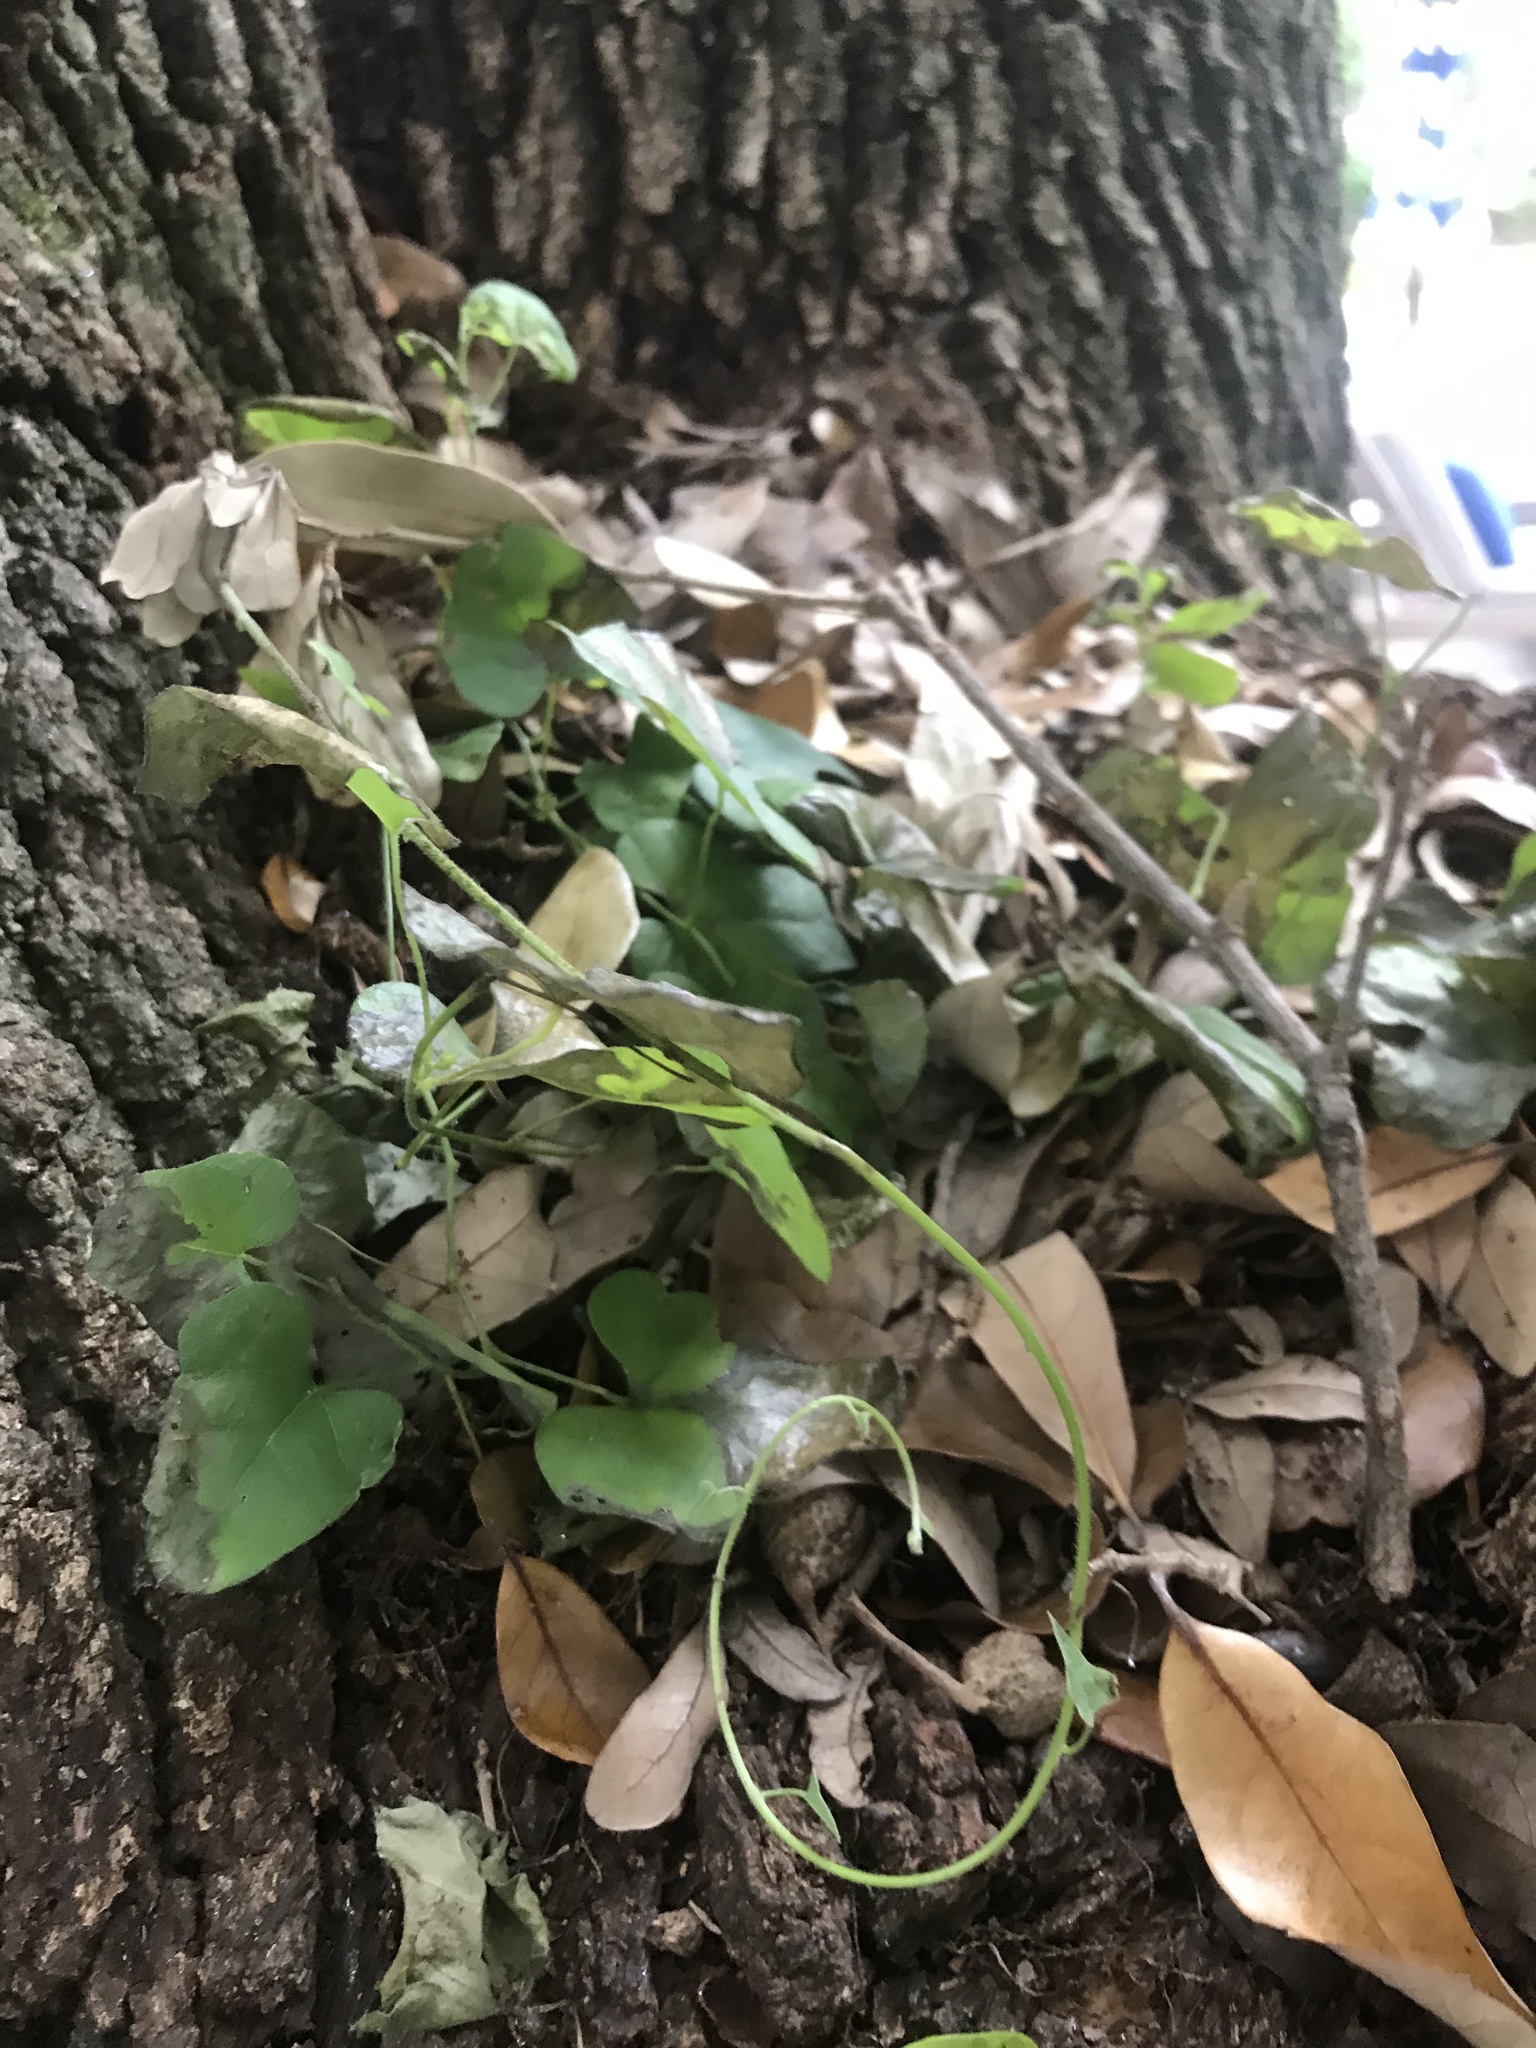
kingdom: Plantae
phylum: Tracheophyta
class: Magnoliopsida
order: Ranunculales
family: Menispermaceae
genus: Cocculus
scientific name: Cocculus carolinus
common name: Carolina moonseed
